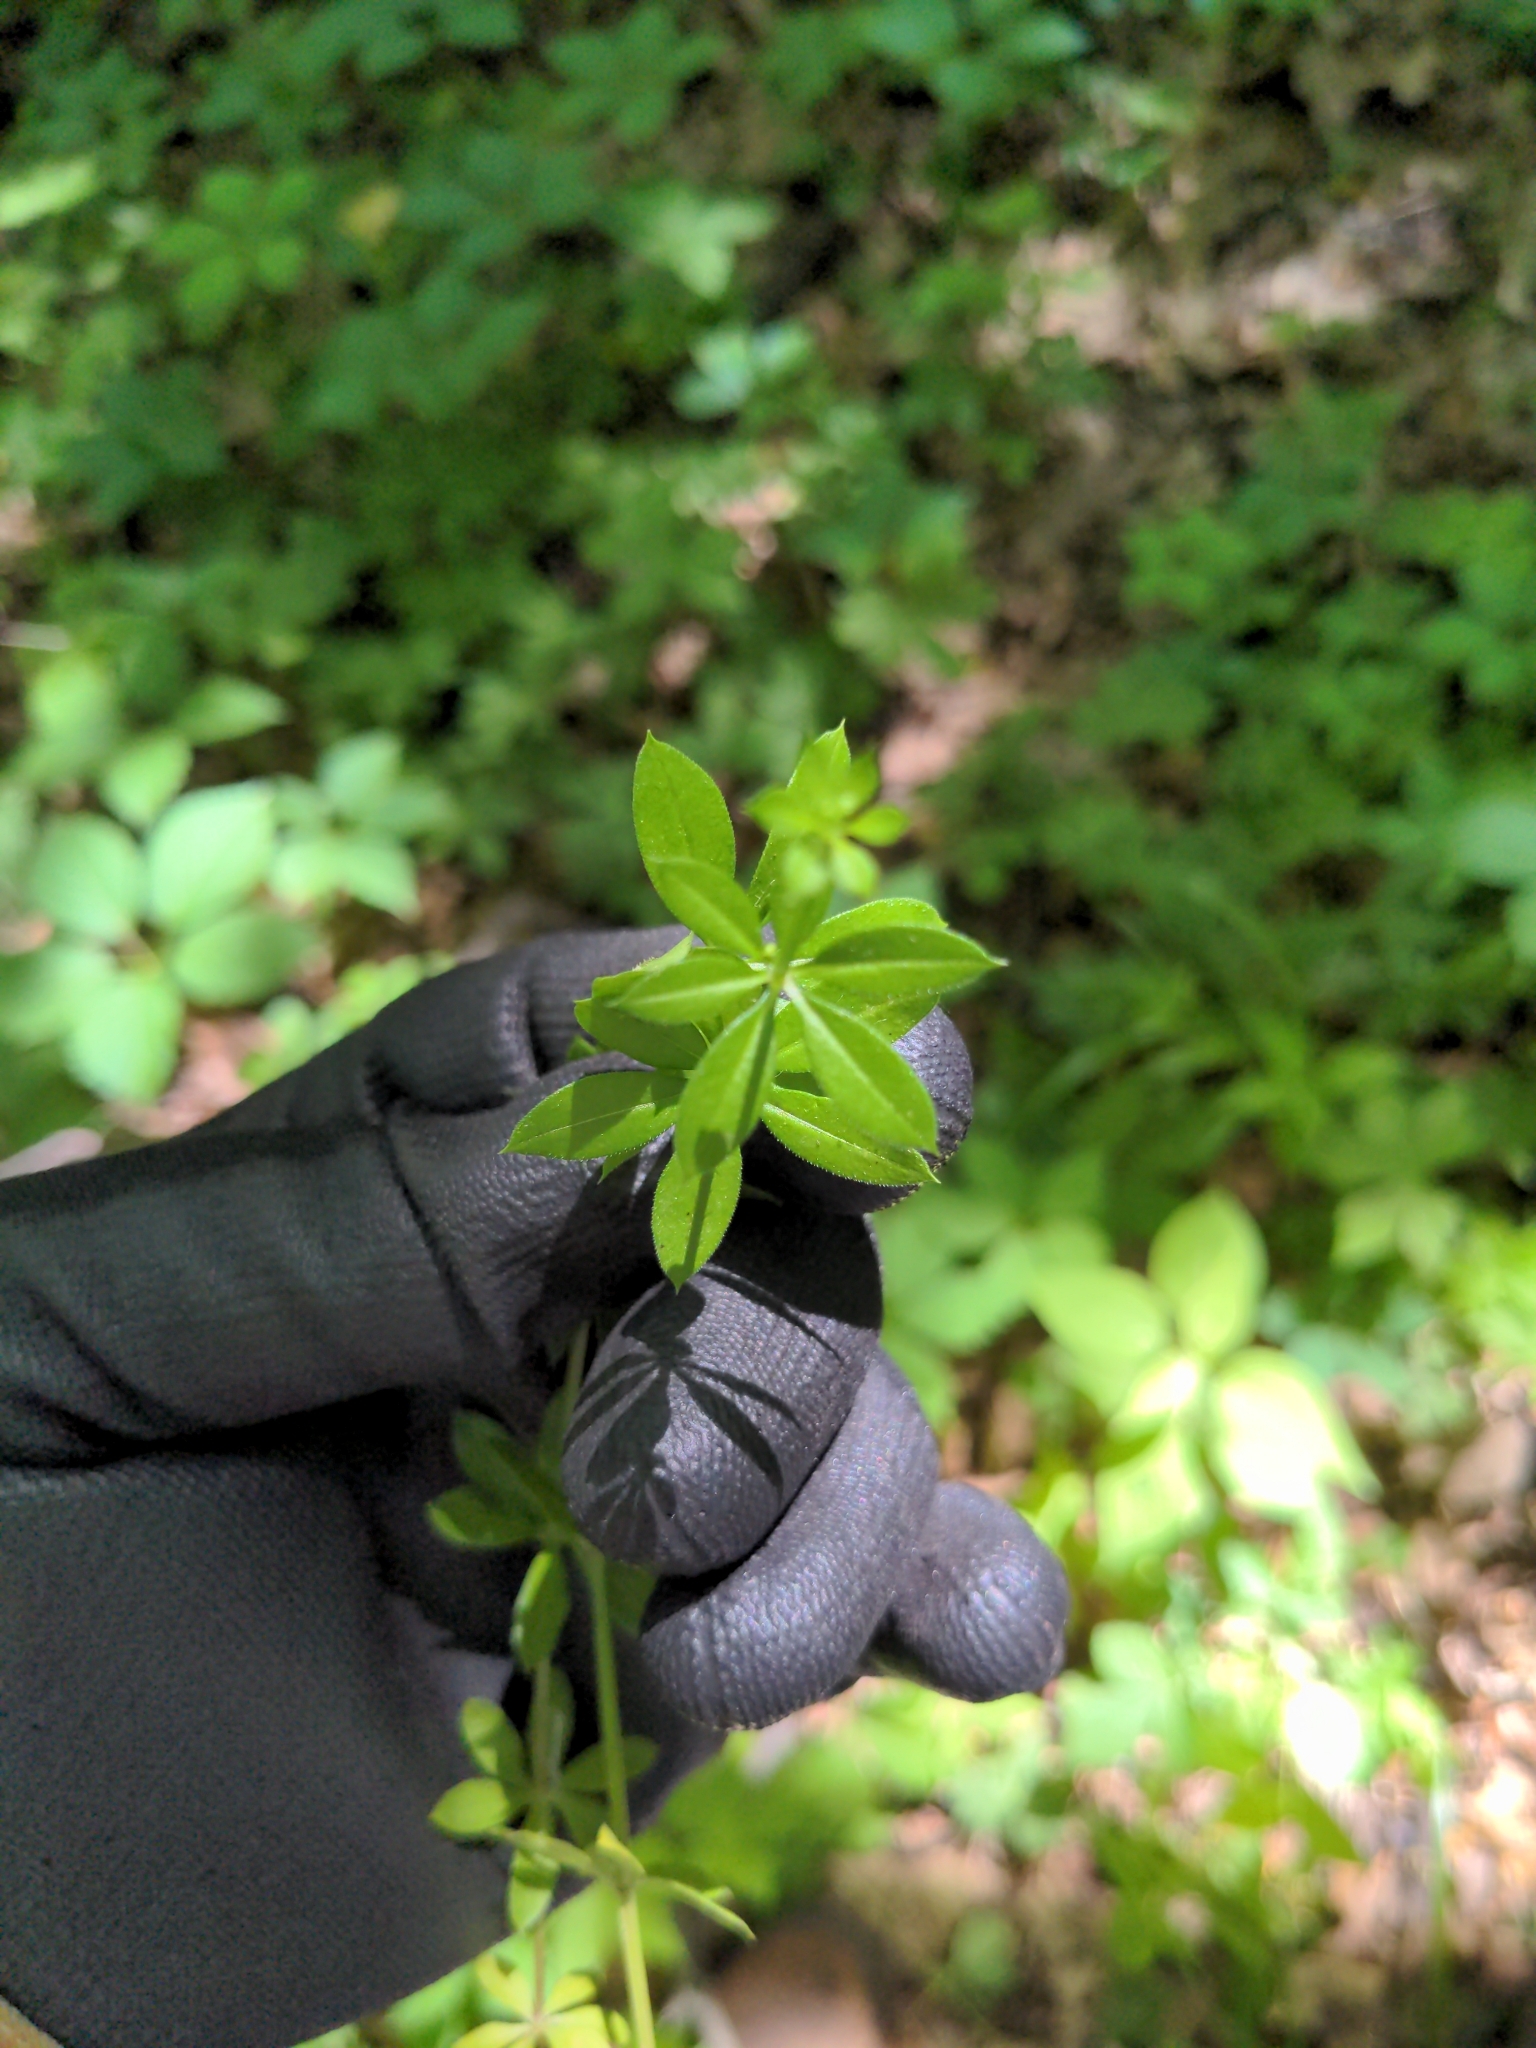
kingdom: Plantae
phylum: Tracheophyta
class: Magnoliopsida
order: Gentianales
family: Rubiaceae
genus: Galium
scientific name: Galium triflorum
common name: Fragrant bedstraw
